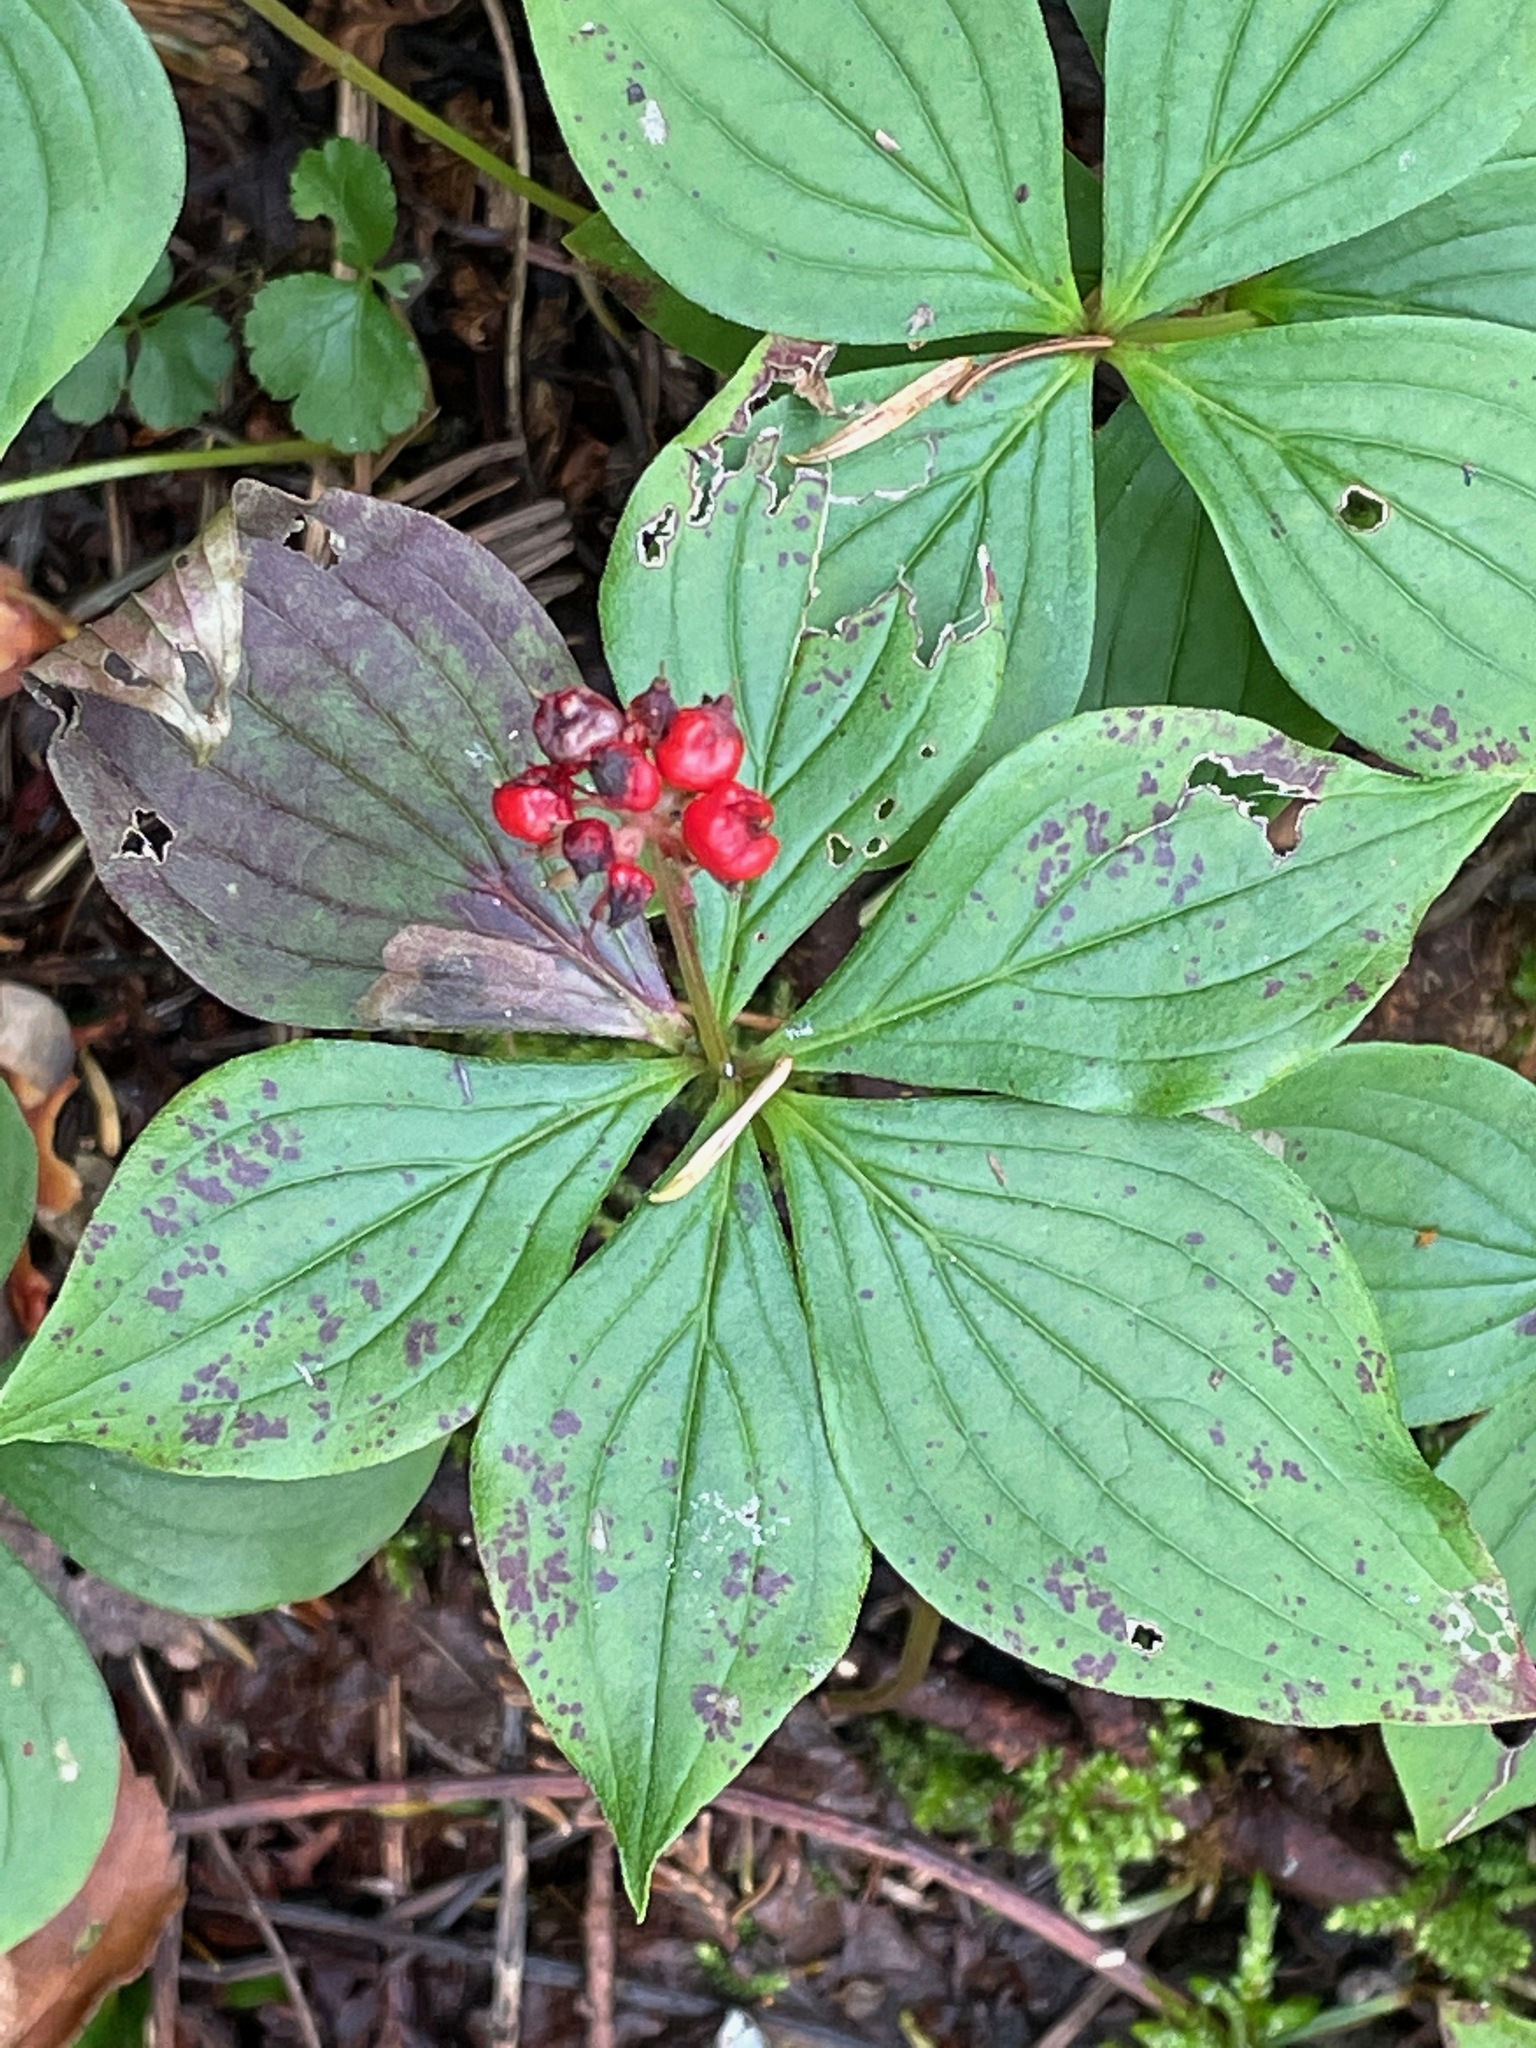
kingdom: Plantae
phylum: Tracheophyta
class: Magnoliopsida
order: Cornales
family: Cornaceae
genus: Cornus
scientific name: Cornus canadensis
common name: Creeping dogwood
